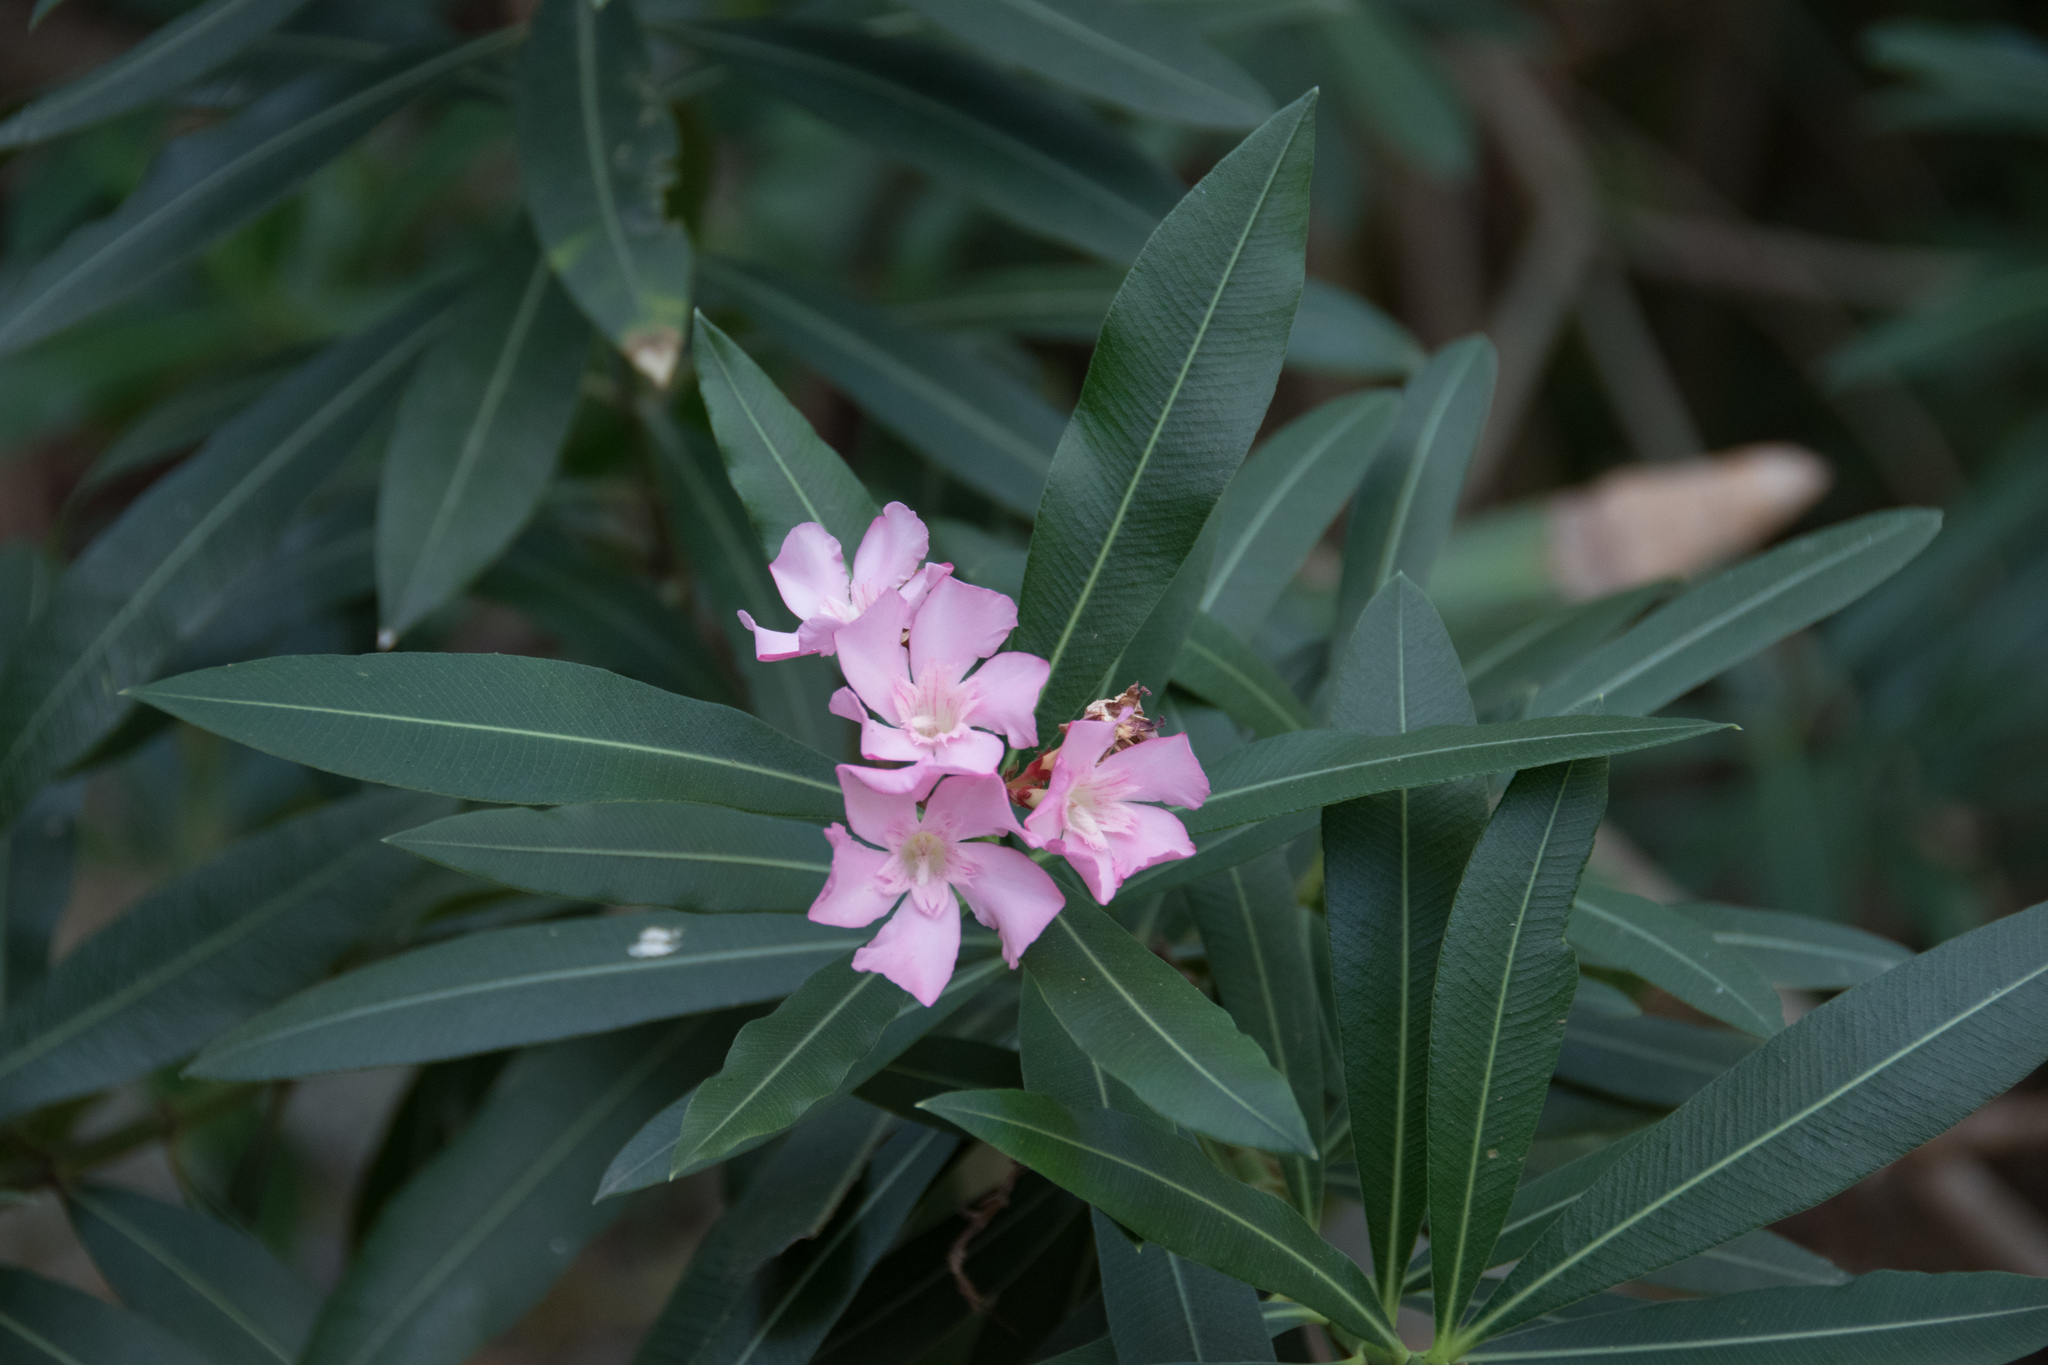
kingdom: Plantae
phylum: Tracheophyta
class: Magnoliopsida
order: Gentianales
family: Apocynaceae
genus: Nerium
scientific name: Nerium oleander
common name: Oleander
